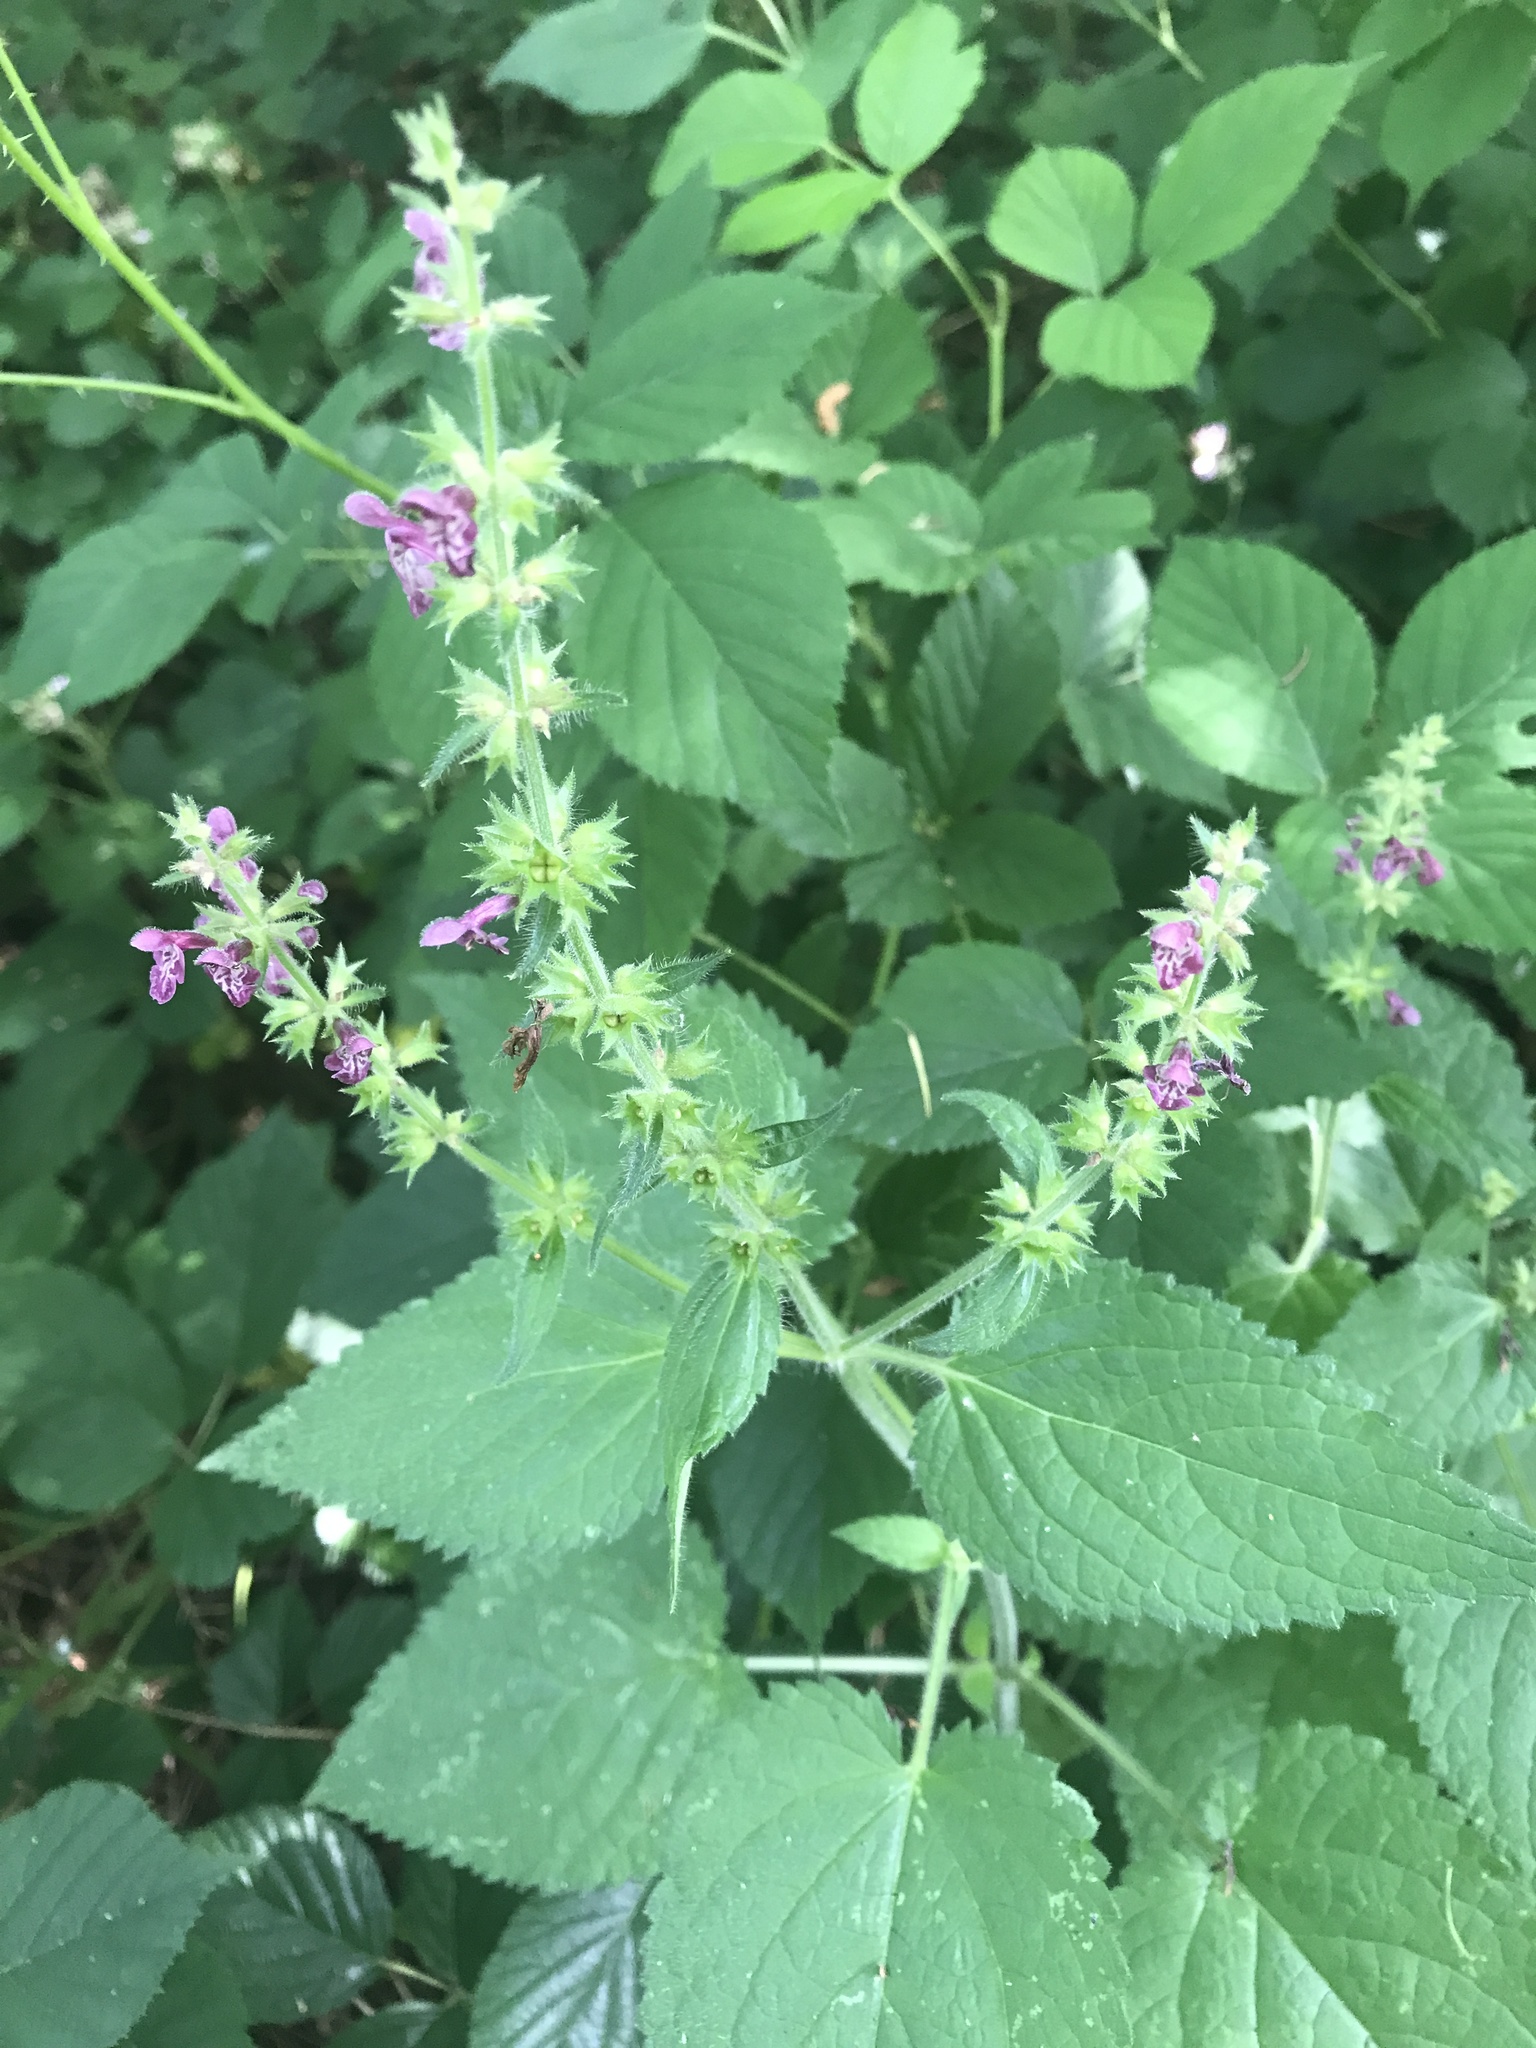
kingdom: Plantae
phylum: Tracheophyta
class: Magnoliopsida
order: Lamiales
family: Lamiaceae
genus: Stachys
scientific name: Stachys sylvatica
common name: Hedge woundwort
